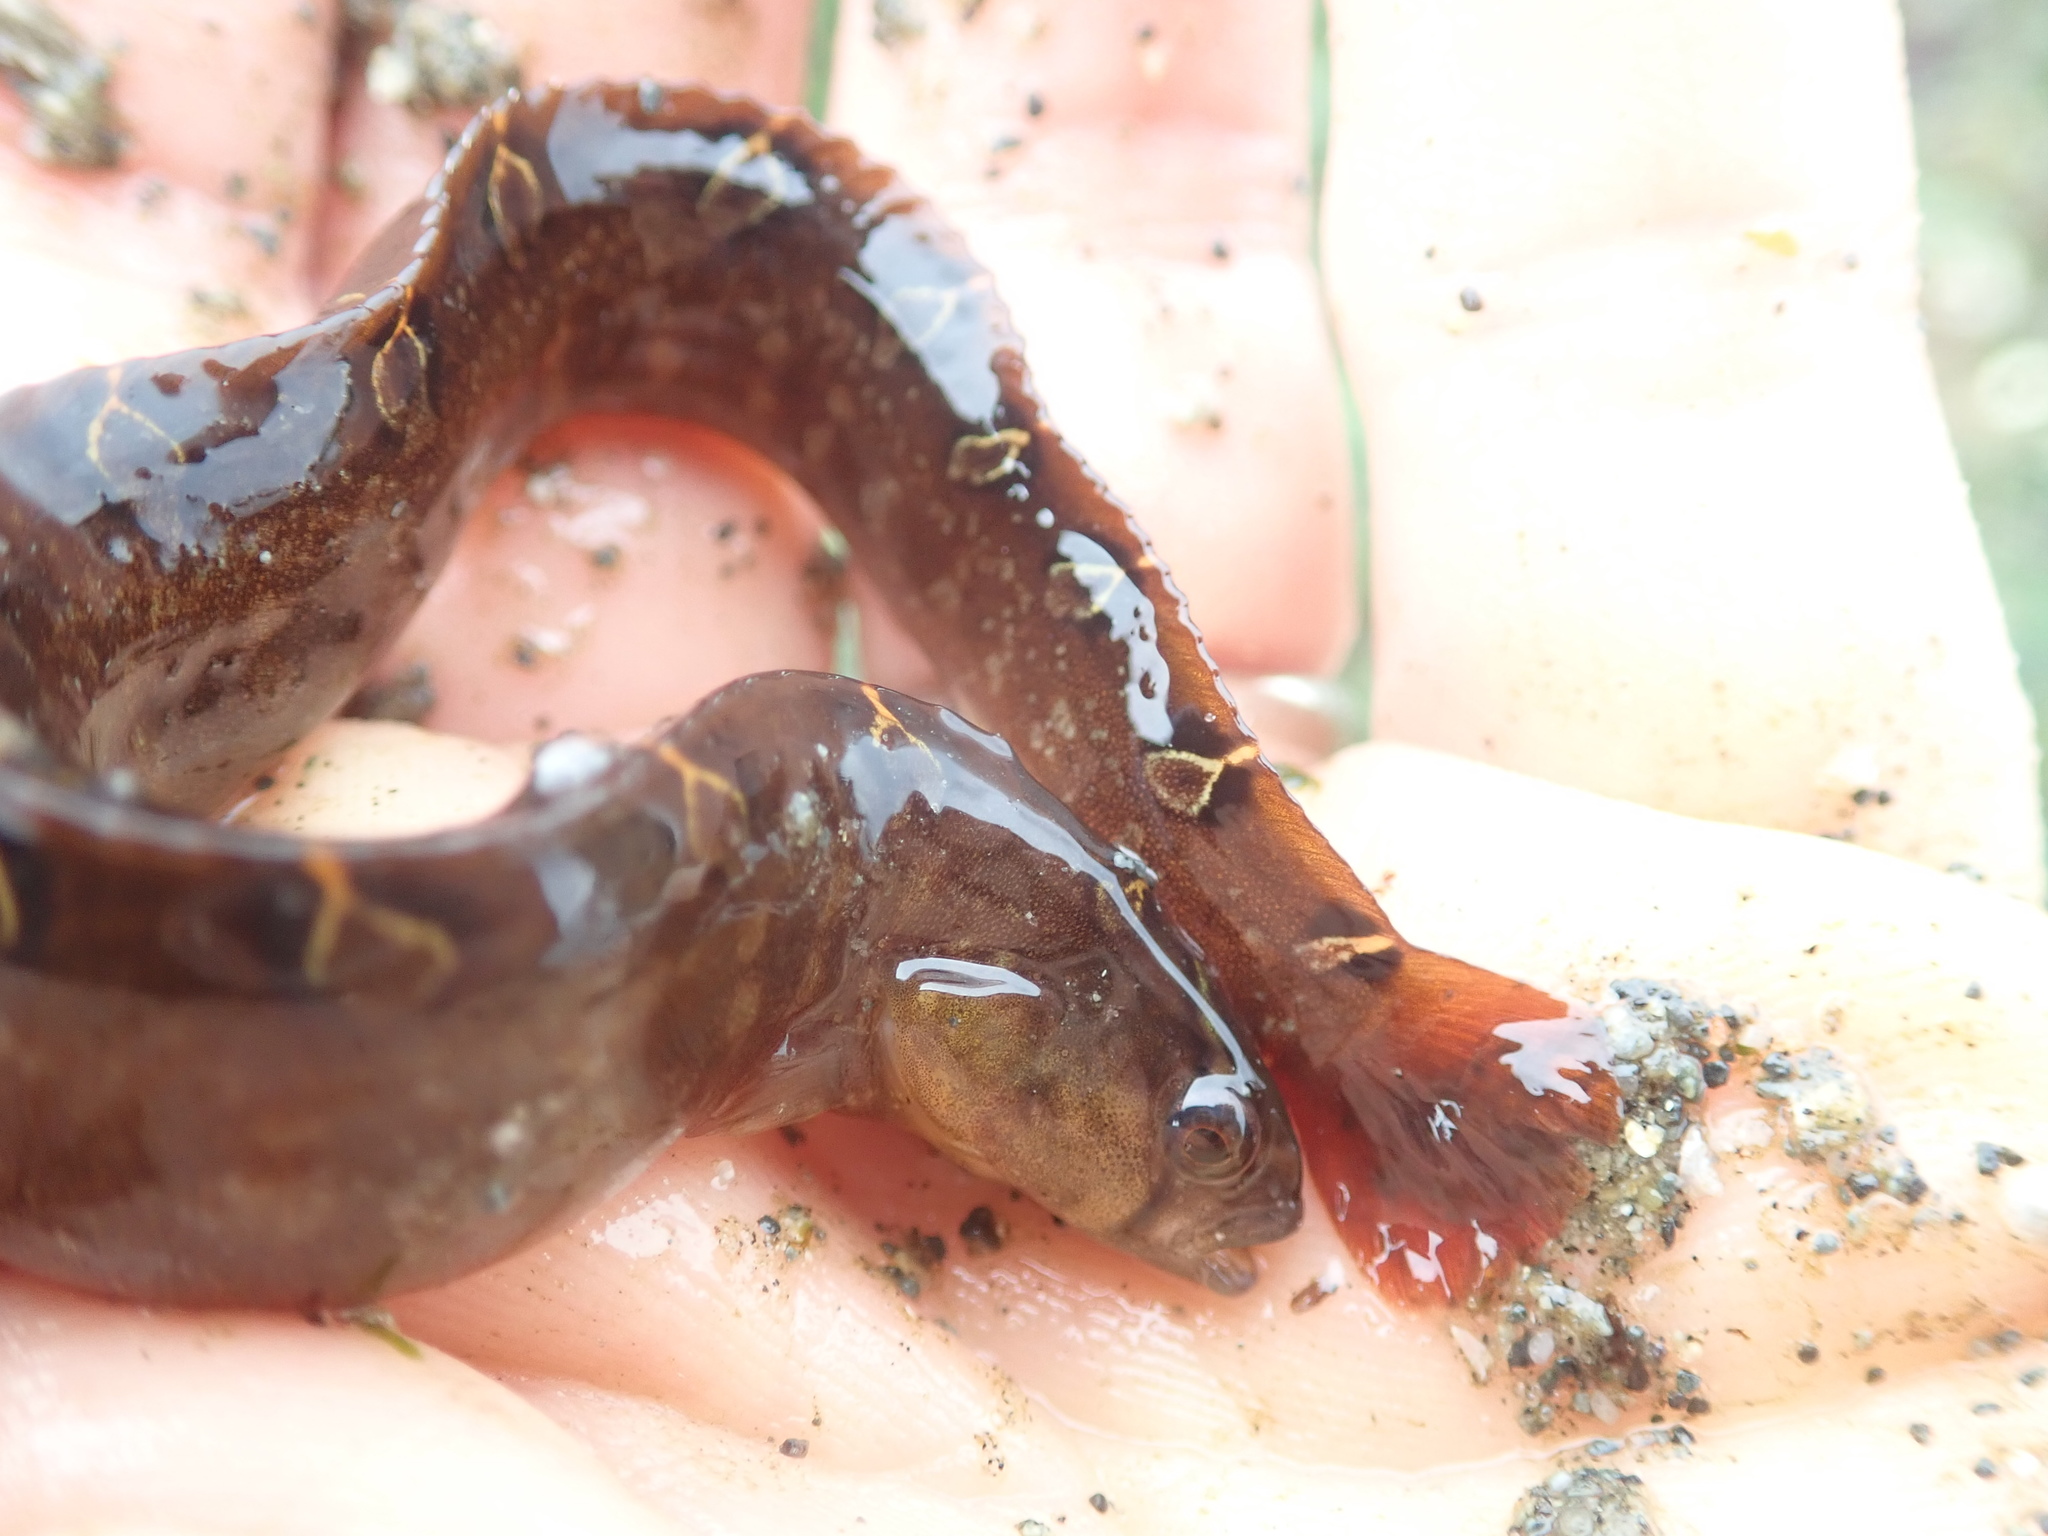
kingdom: Animalia
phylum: Chordata
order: Perciformes
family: Pholidae
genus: Pholis
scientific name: Pholis laeta
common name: Crescent gunnel
